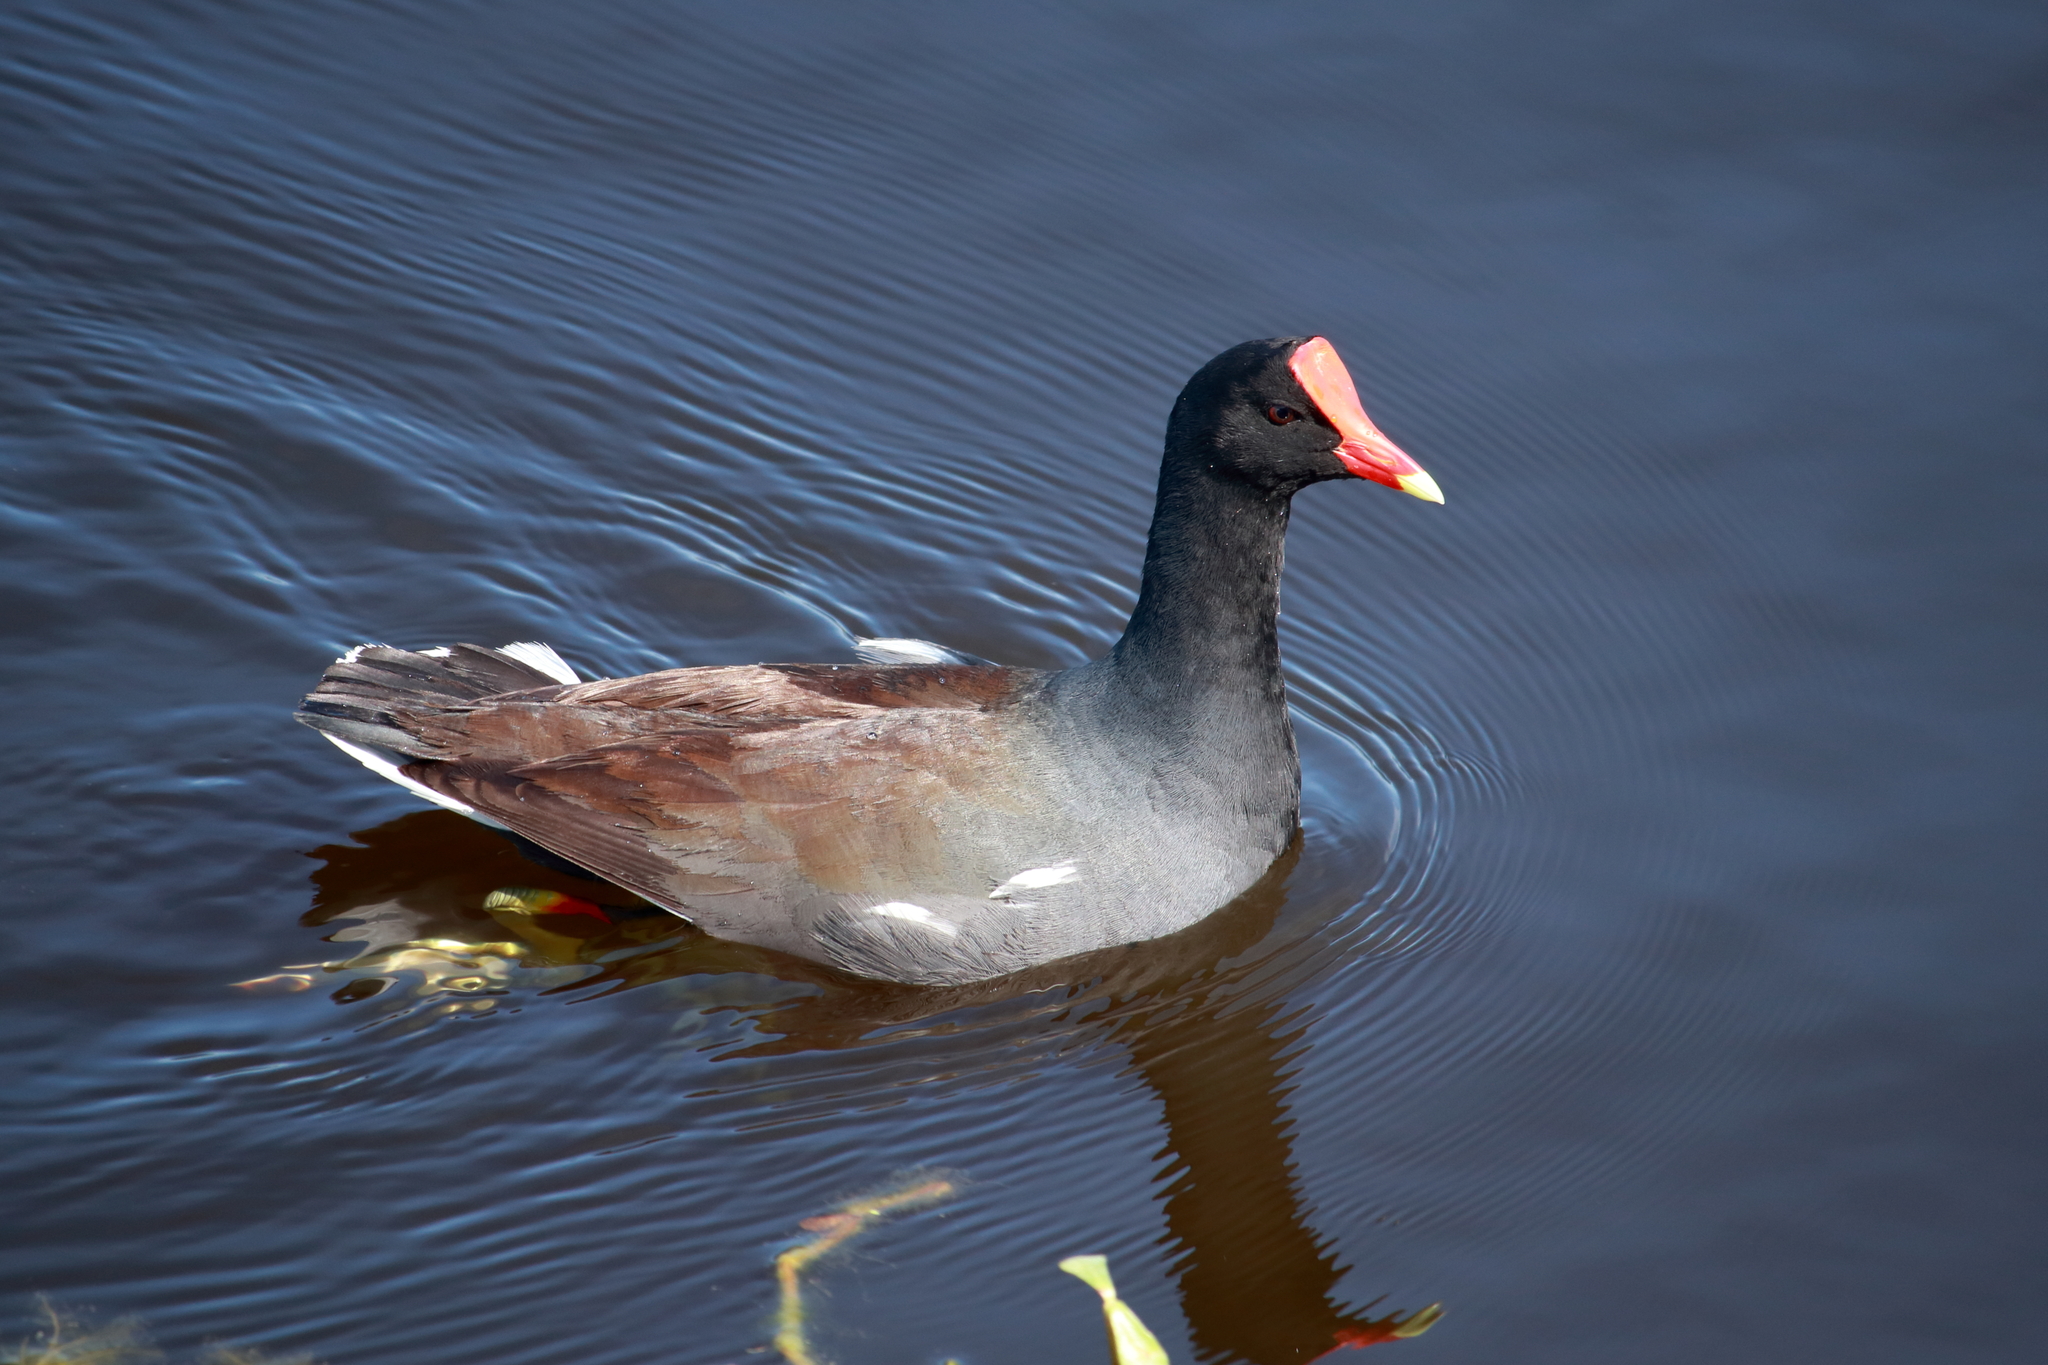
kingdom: Animalia
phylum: Chordata
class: Aves
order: Gruiformes
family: Rallidae
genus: Gallinula
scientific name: Gallinula chloropus
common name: Common moorhen
